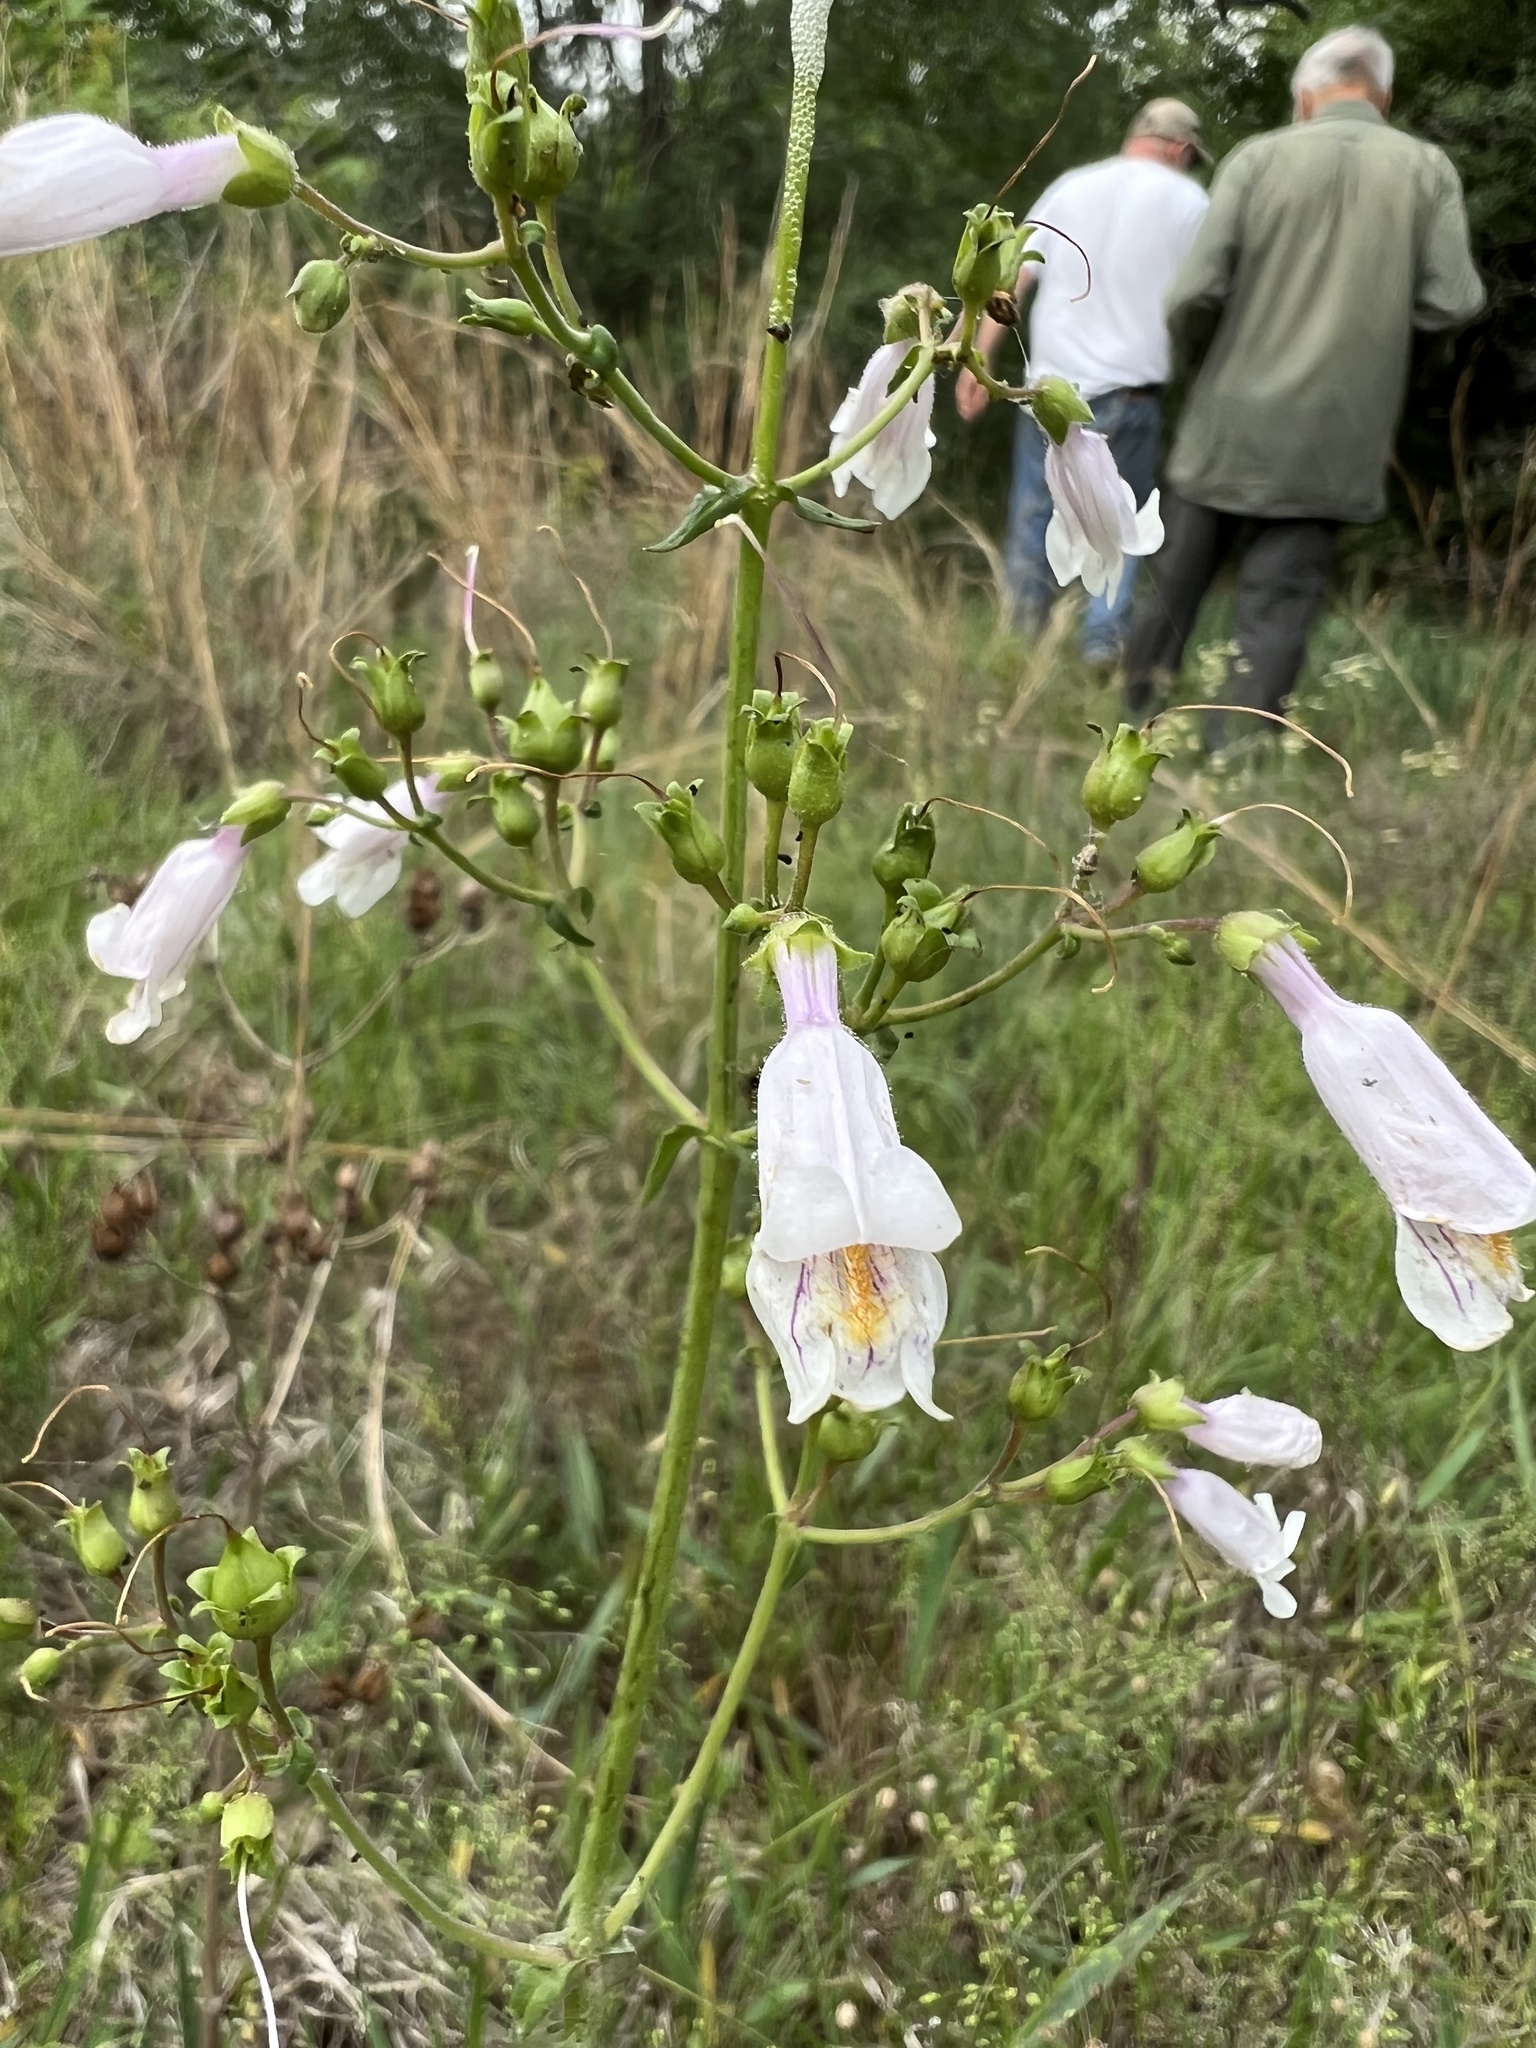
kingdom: Plantae
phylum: Tracheophyta
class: Magnoliopsida
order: Lamiales
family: Plantaginaceae
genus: Penstemon
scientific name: Penstemon laxiflorus
